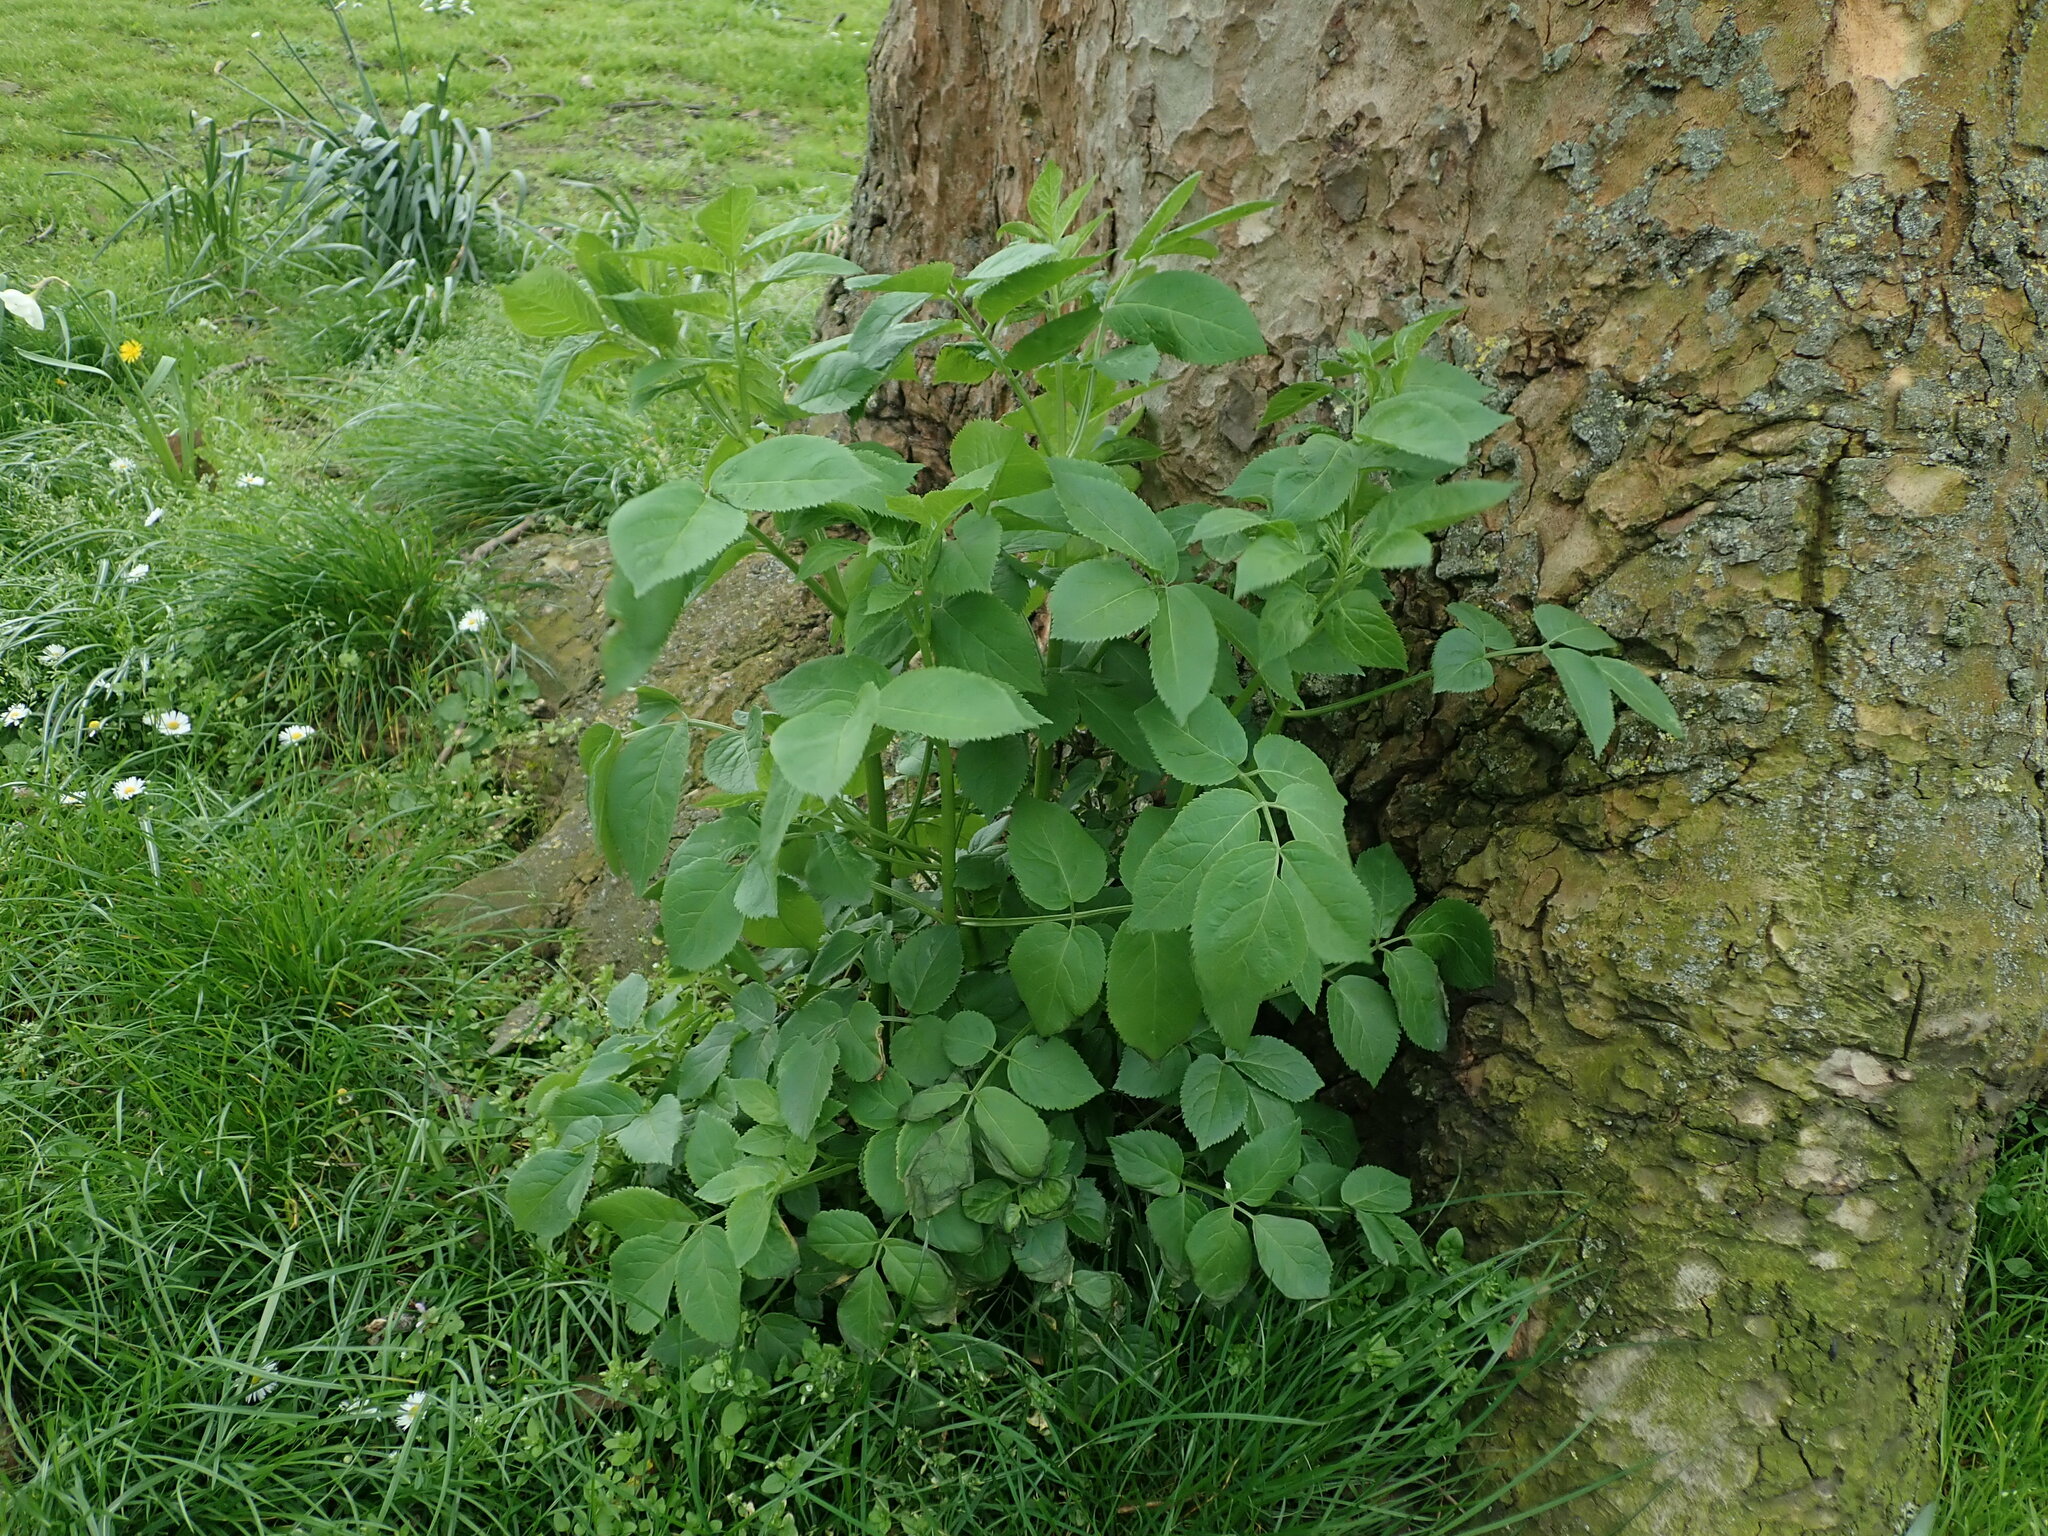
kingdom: Plantae
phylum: Tracheophyta
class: Magnoliopsida
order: Dipsacales
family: Viburnaceae
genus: Sambucus
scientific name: Sambucus nigra
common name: Elder
